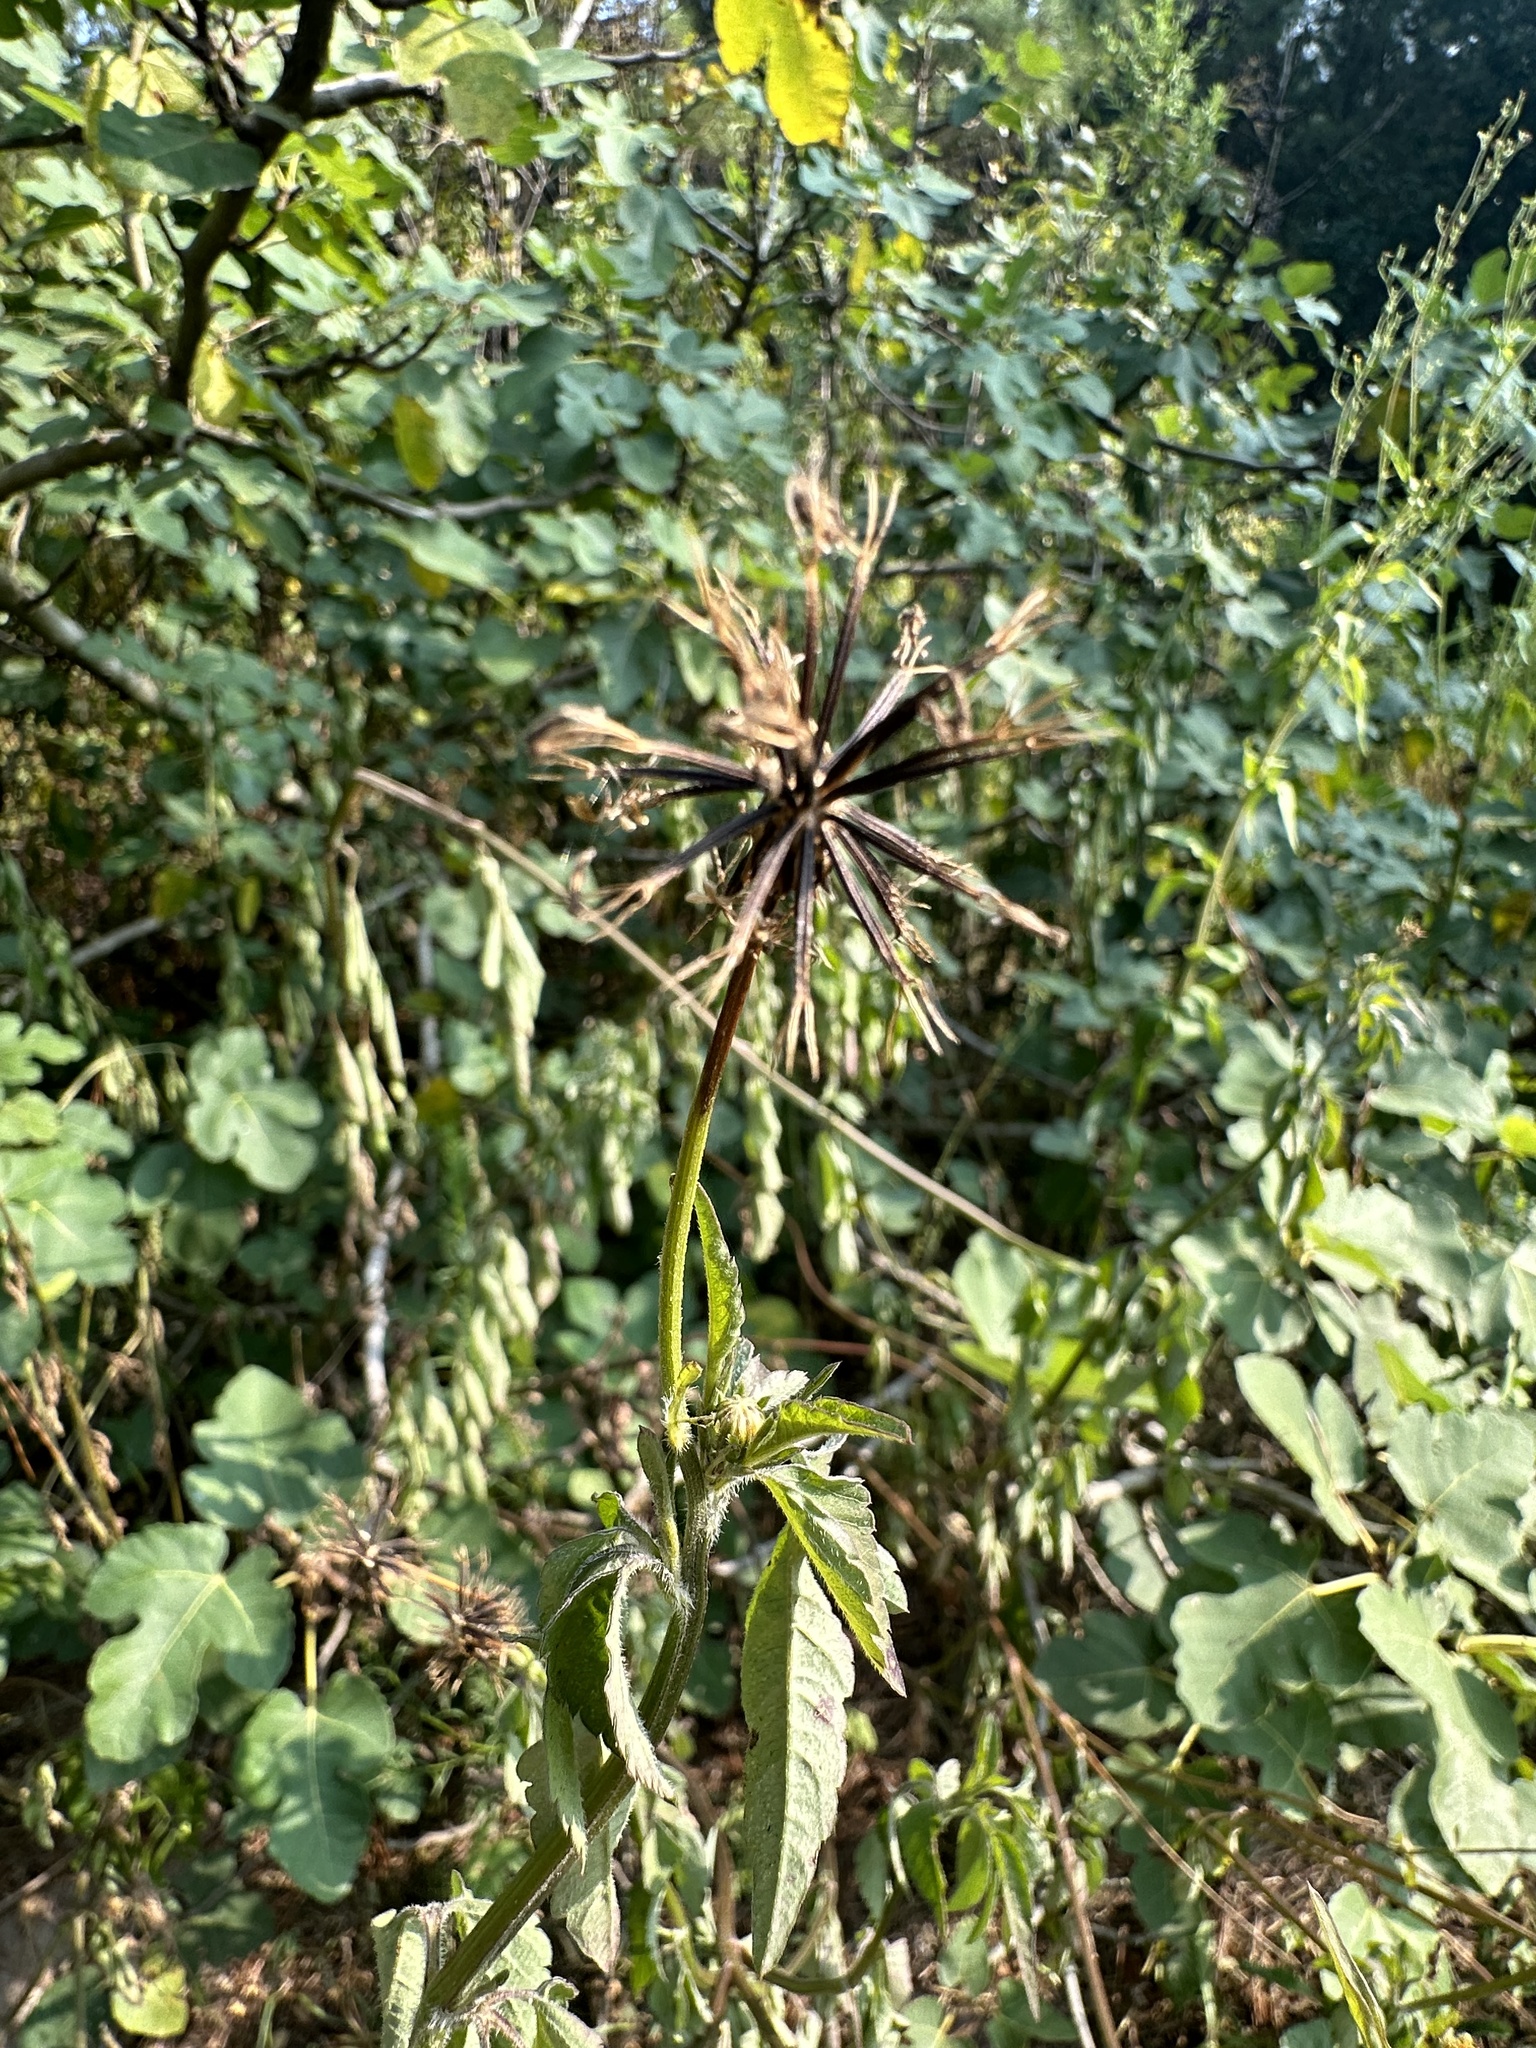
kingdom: Plantae
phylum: Tracheophyta
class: Magnoliopsida
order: Asterales
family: Asteraceae
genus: Bidens
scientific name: Bidens bipinnata
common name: Spanish-needles
